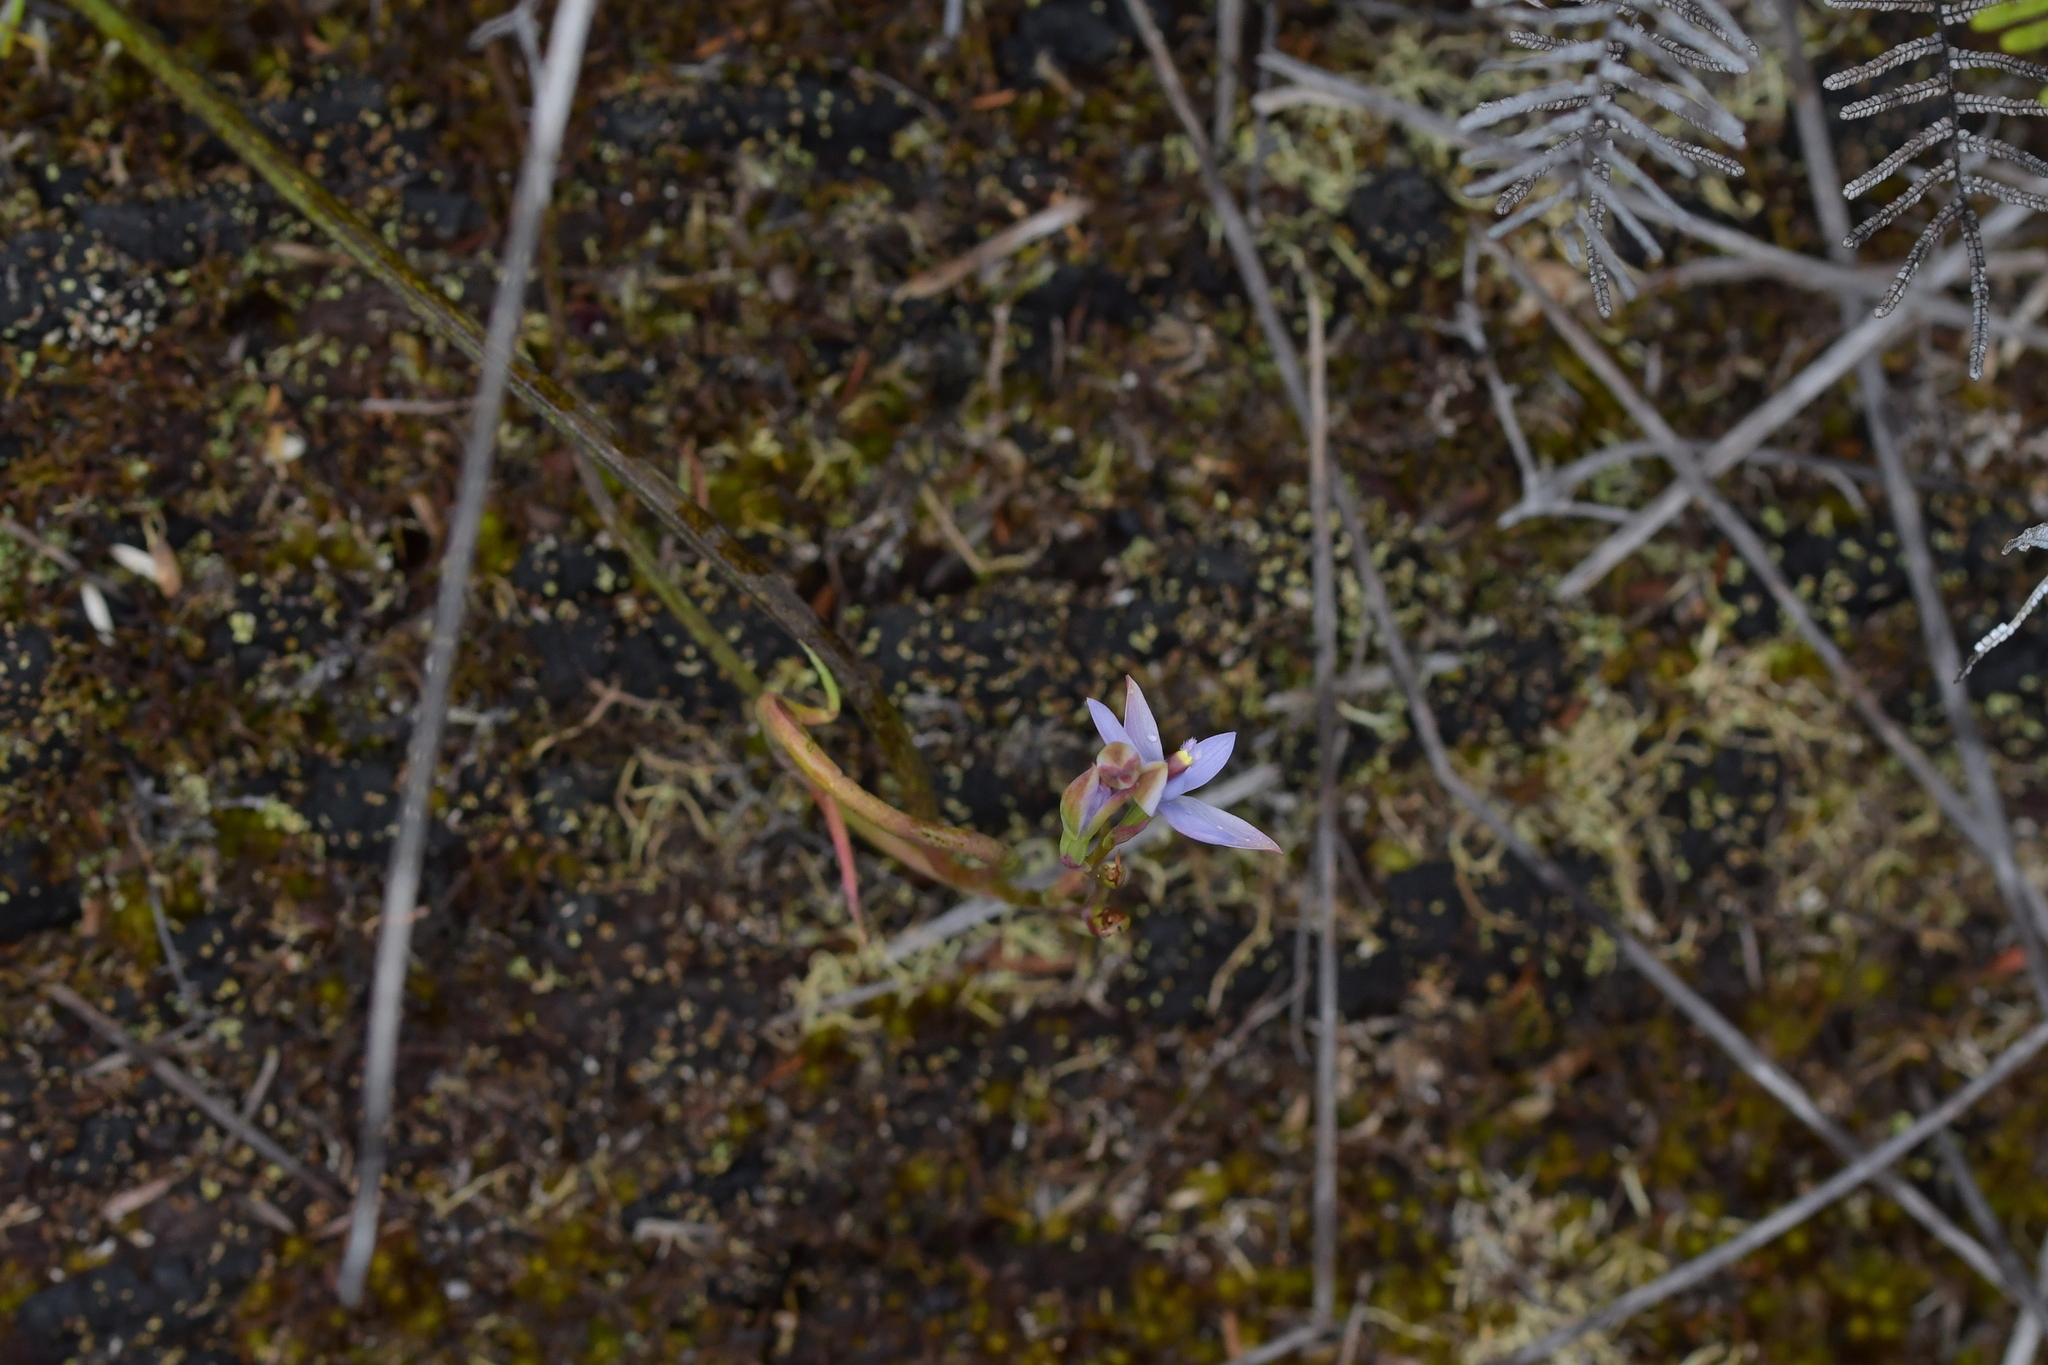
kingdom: Plantae
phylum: Tracheophyta
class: Liliopsida
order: Asparagales
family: Orchidaceae
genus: Thelymitra
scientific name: Thelymitra malvina
